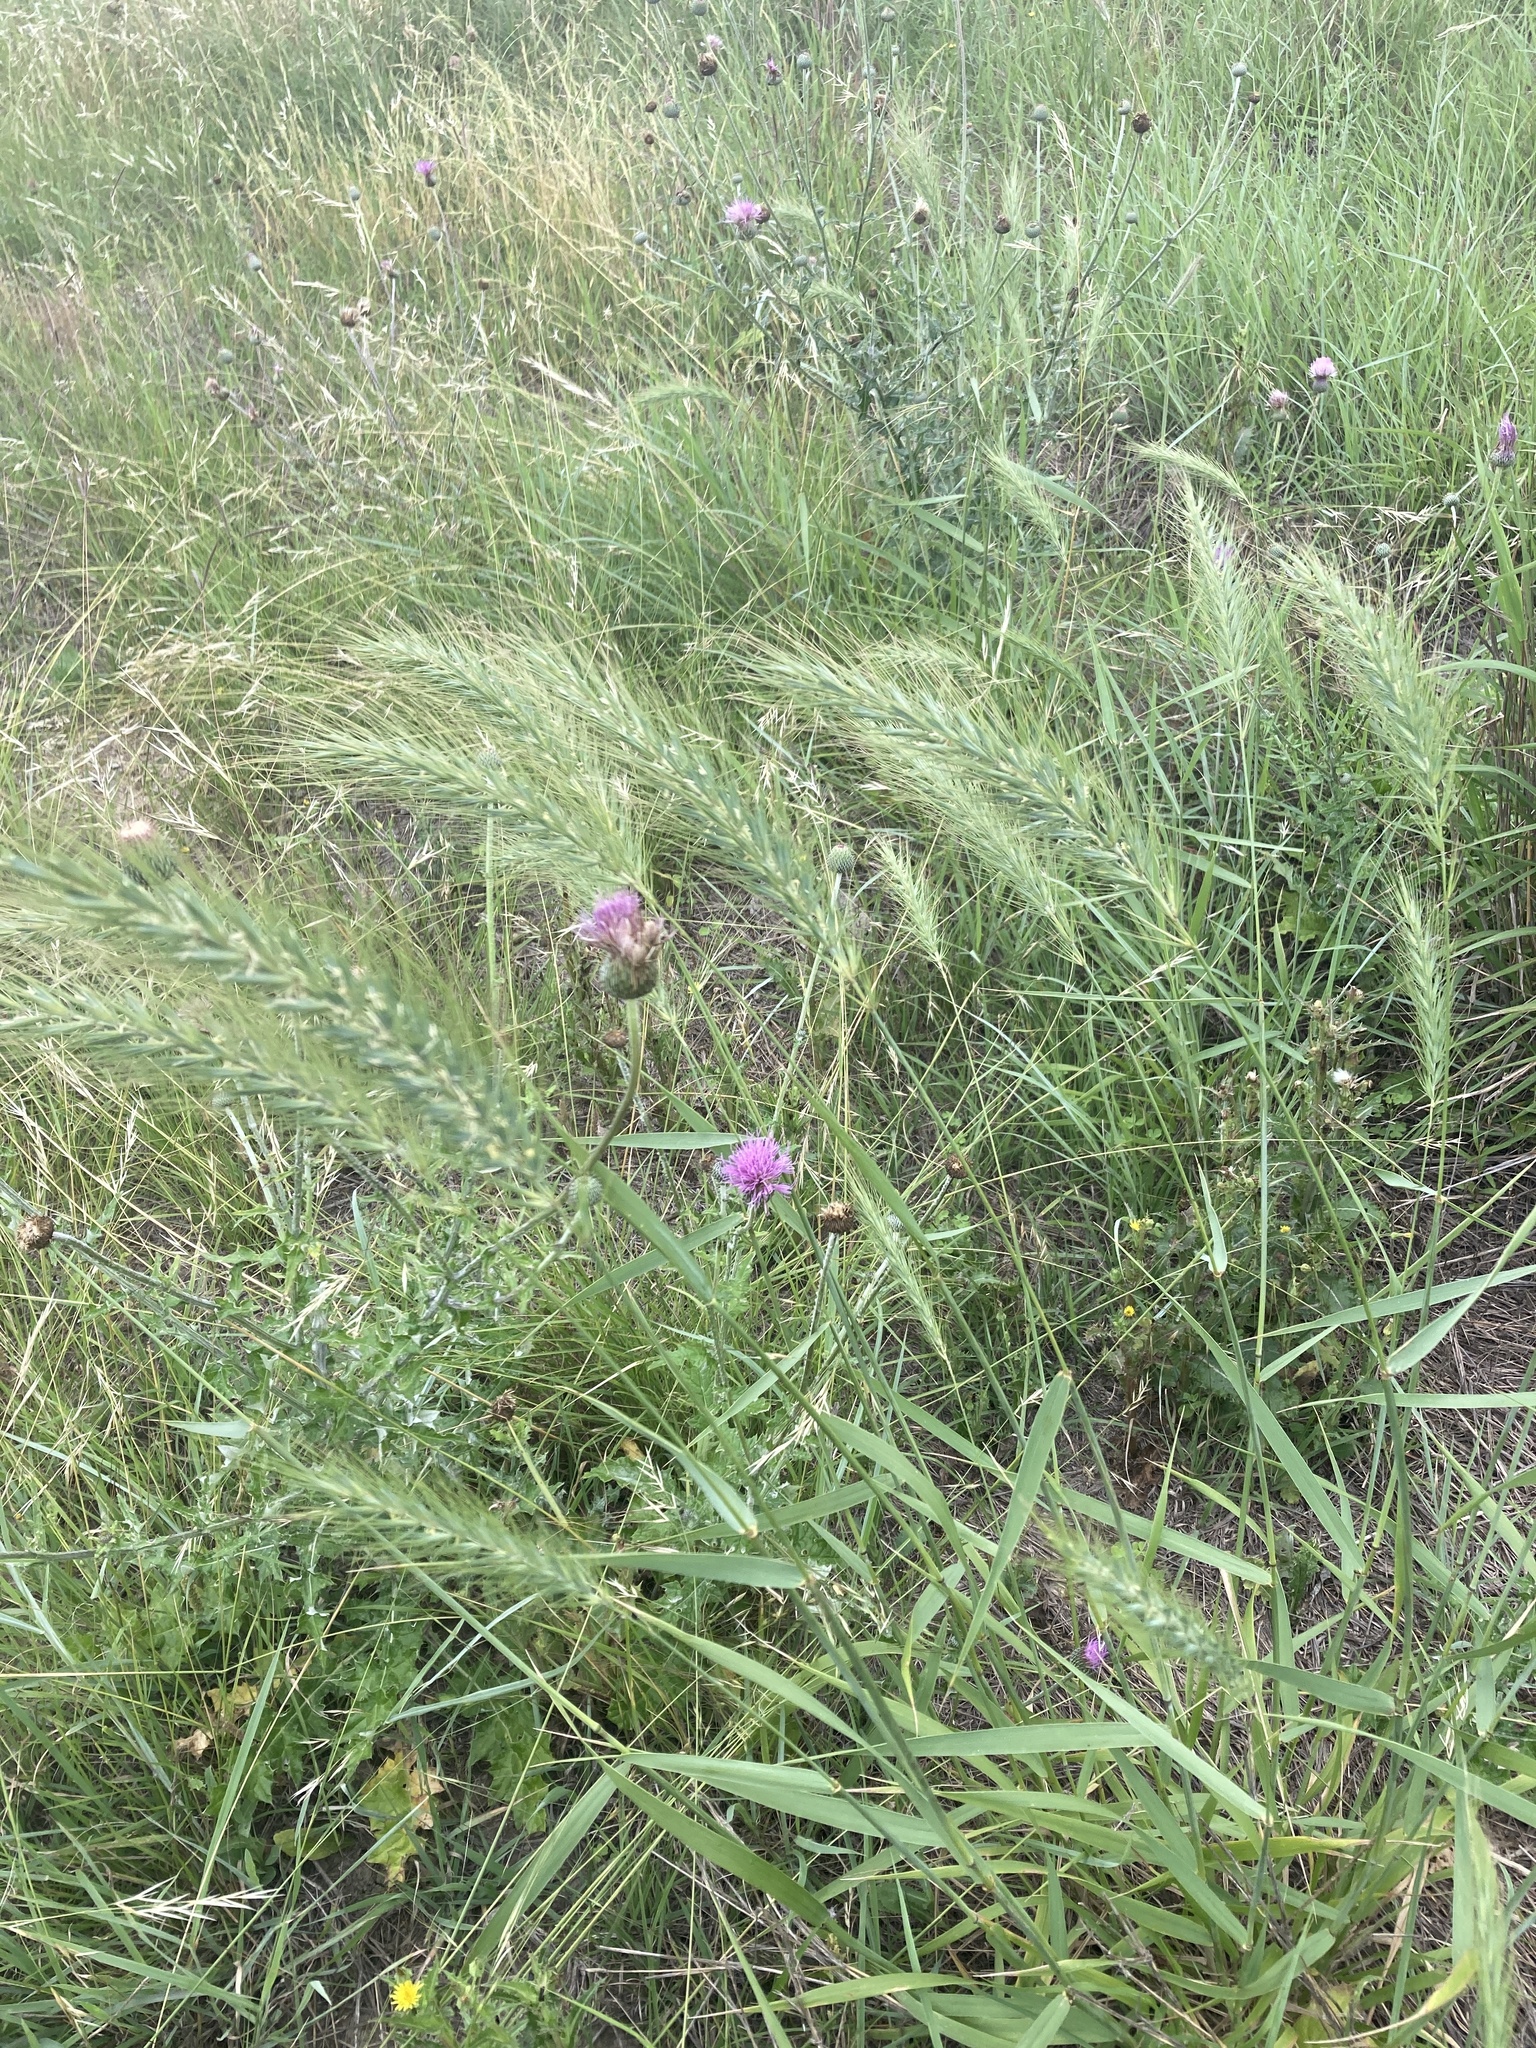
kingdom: Plantae
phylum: Tracheophyta
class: Liliopsida
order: Poales
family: Poaceae
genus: Elymus
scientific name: Elymus canadensis
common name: Canada wild rye
